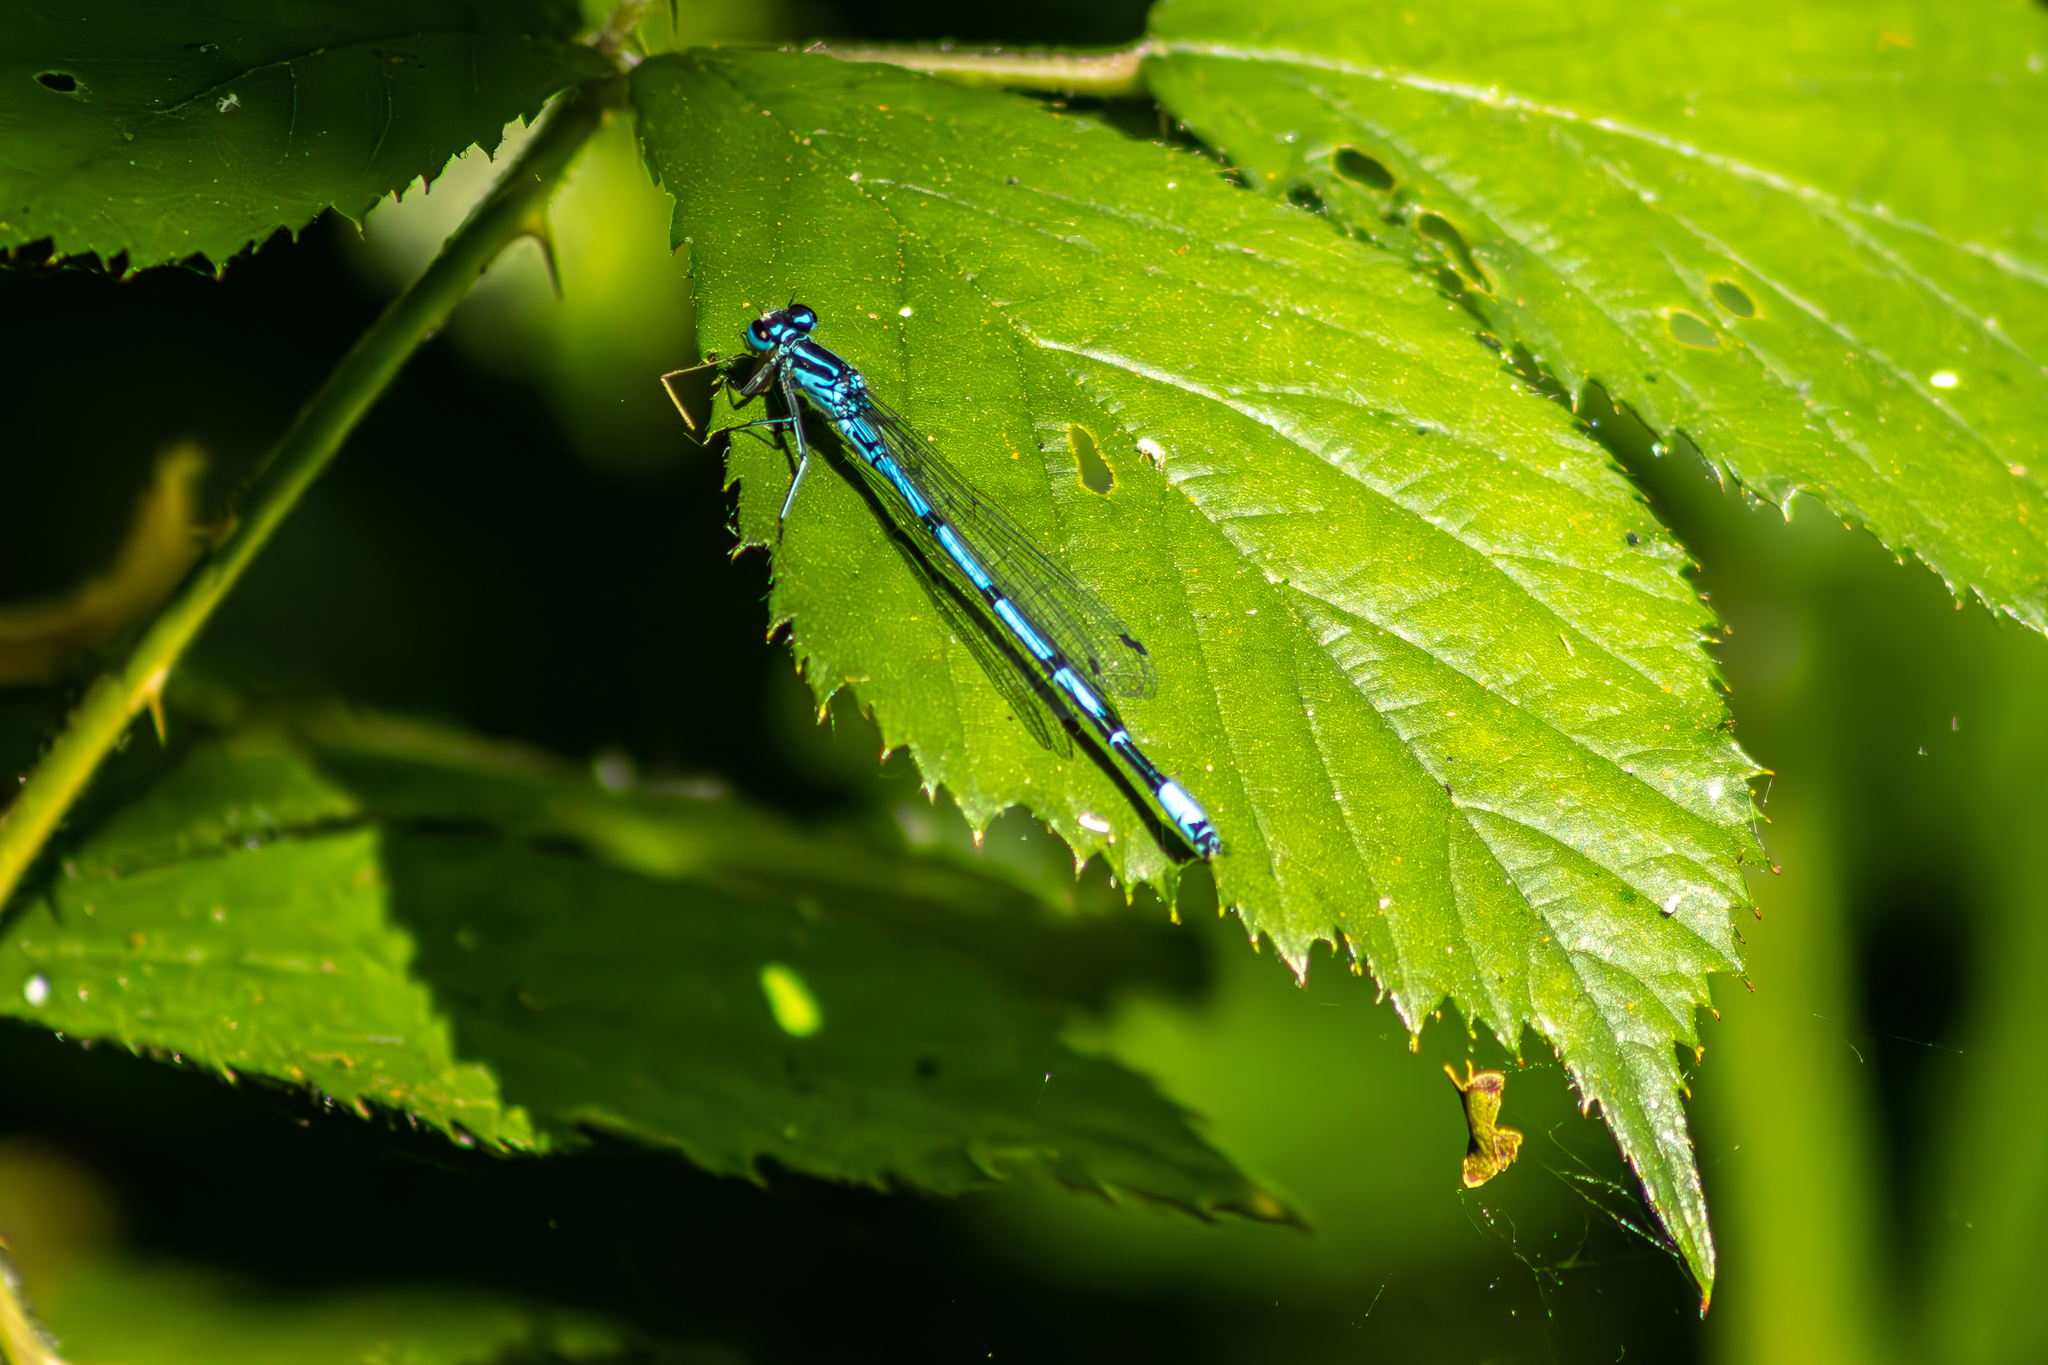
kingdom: Animalia
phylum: Arthropoda
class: Insecta
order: Odonata
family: Coenagrionidae
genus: Coenagrion
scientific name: Coenagrion puella
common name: Azure damselfly
